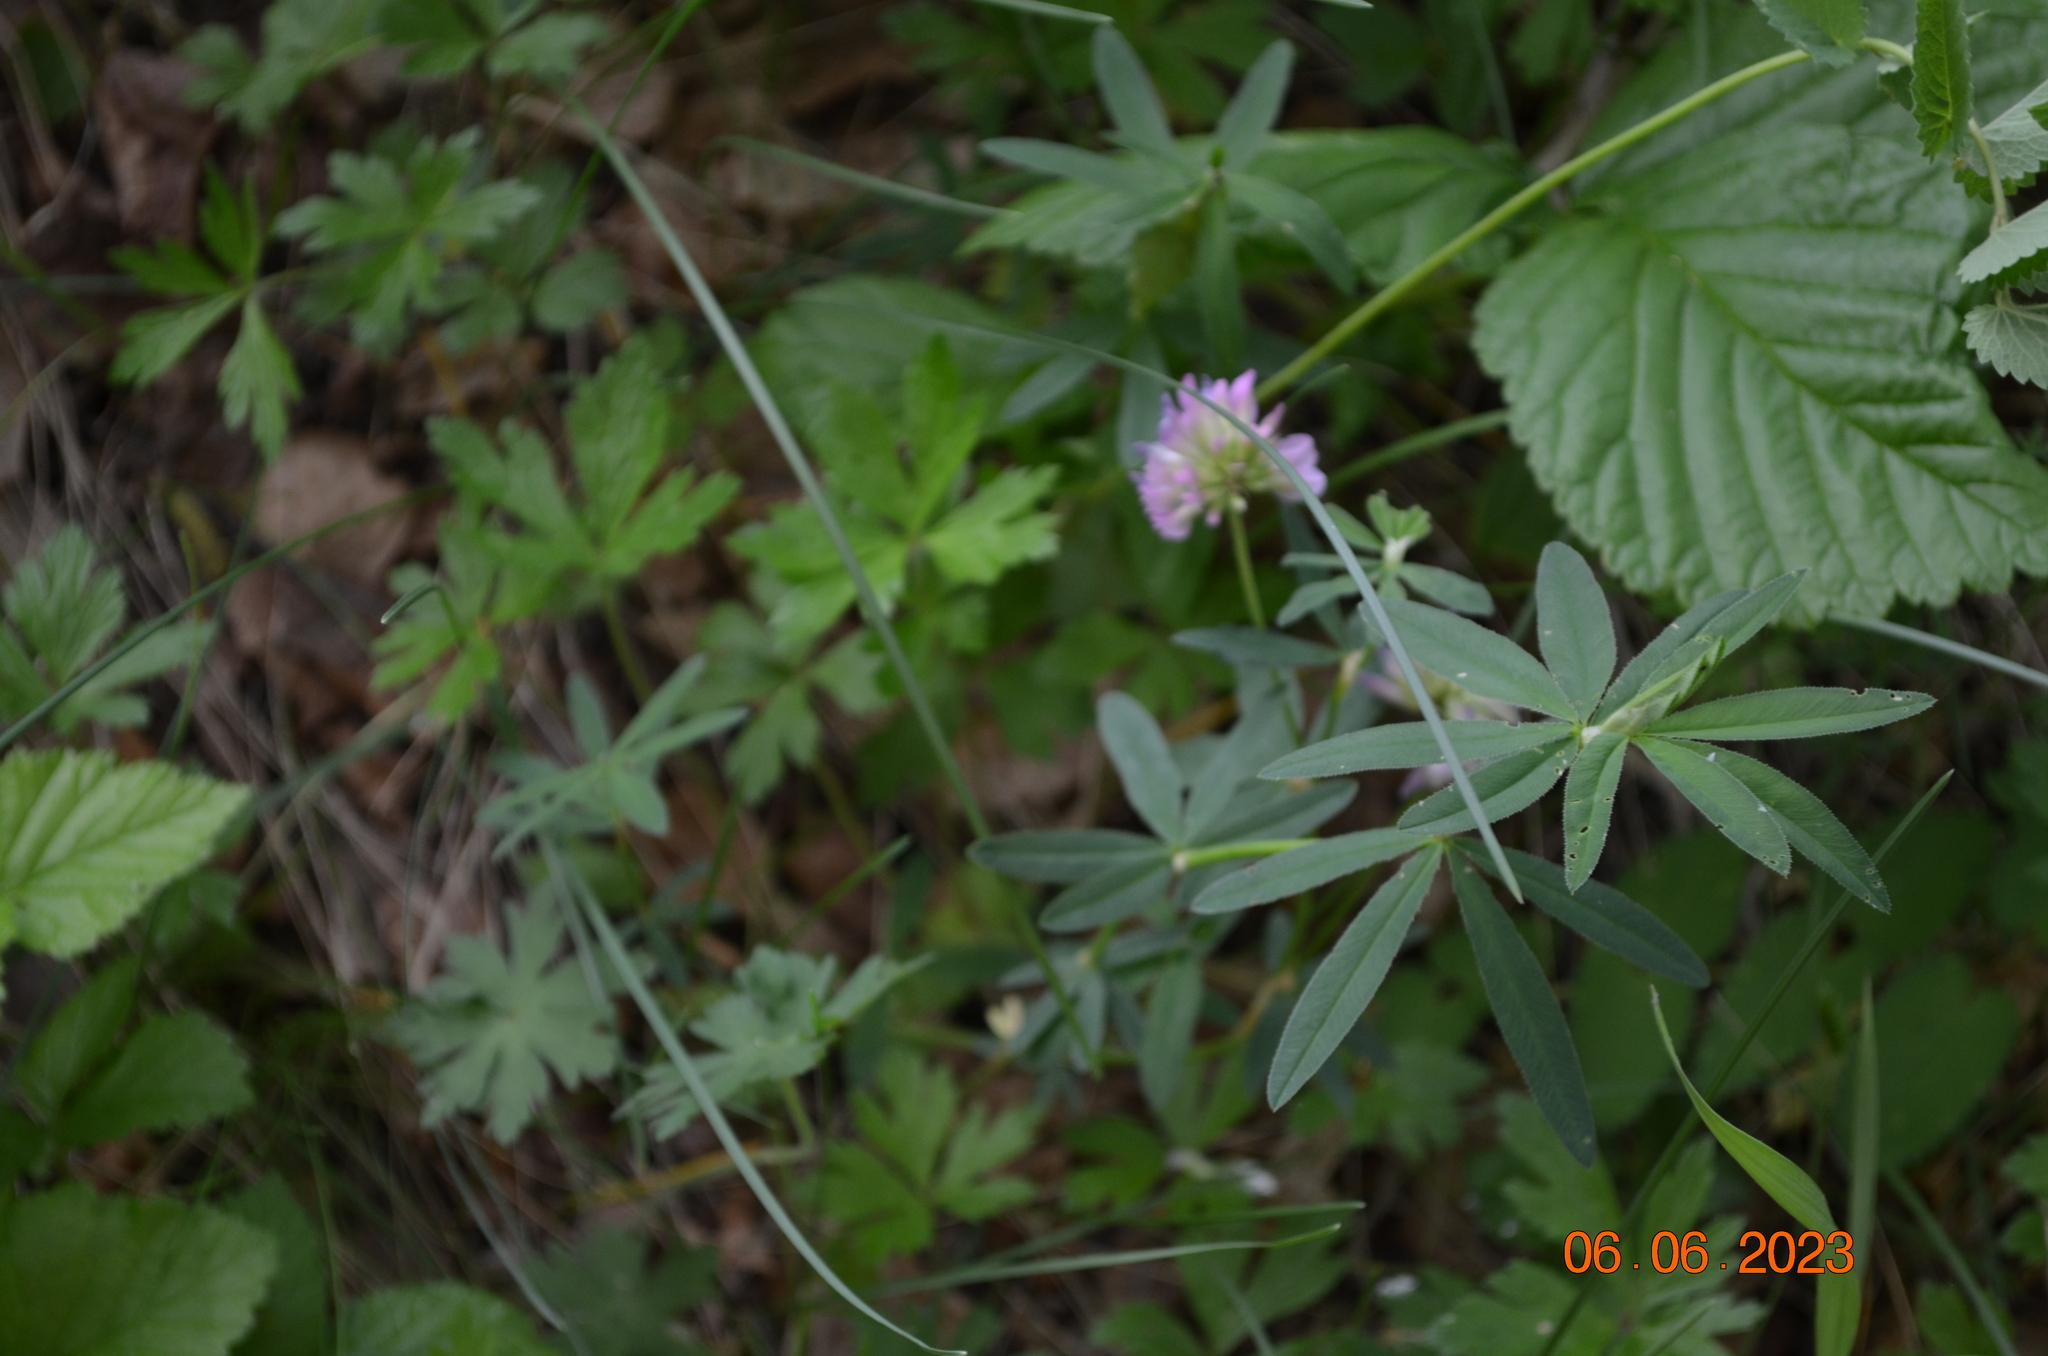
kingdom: Plantae
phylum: Tracheophyta
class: Magnoliopsida
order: Fabales
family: Fabaceae
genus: Trifolium
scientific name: Trifolium lupinaster
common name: Lupine clover
